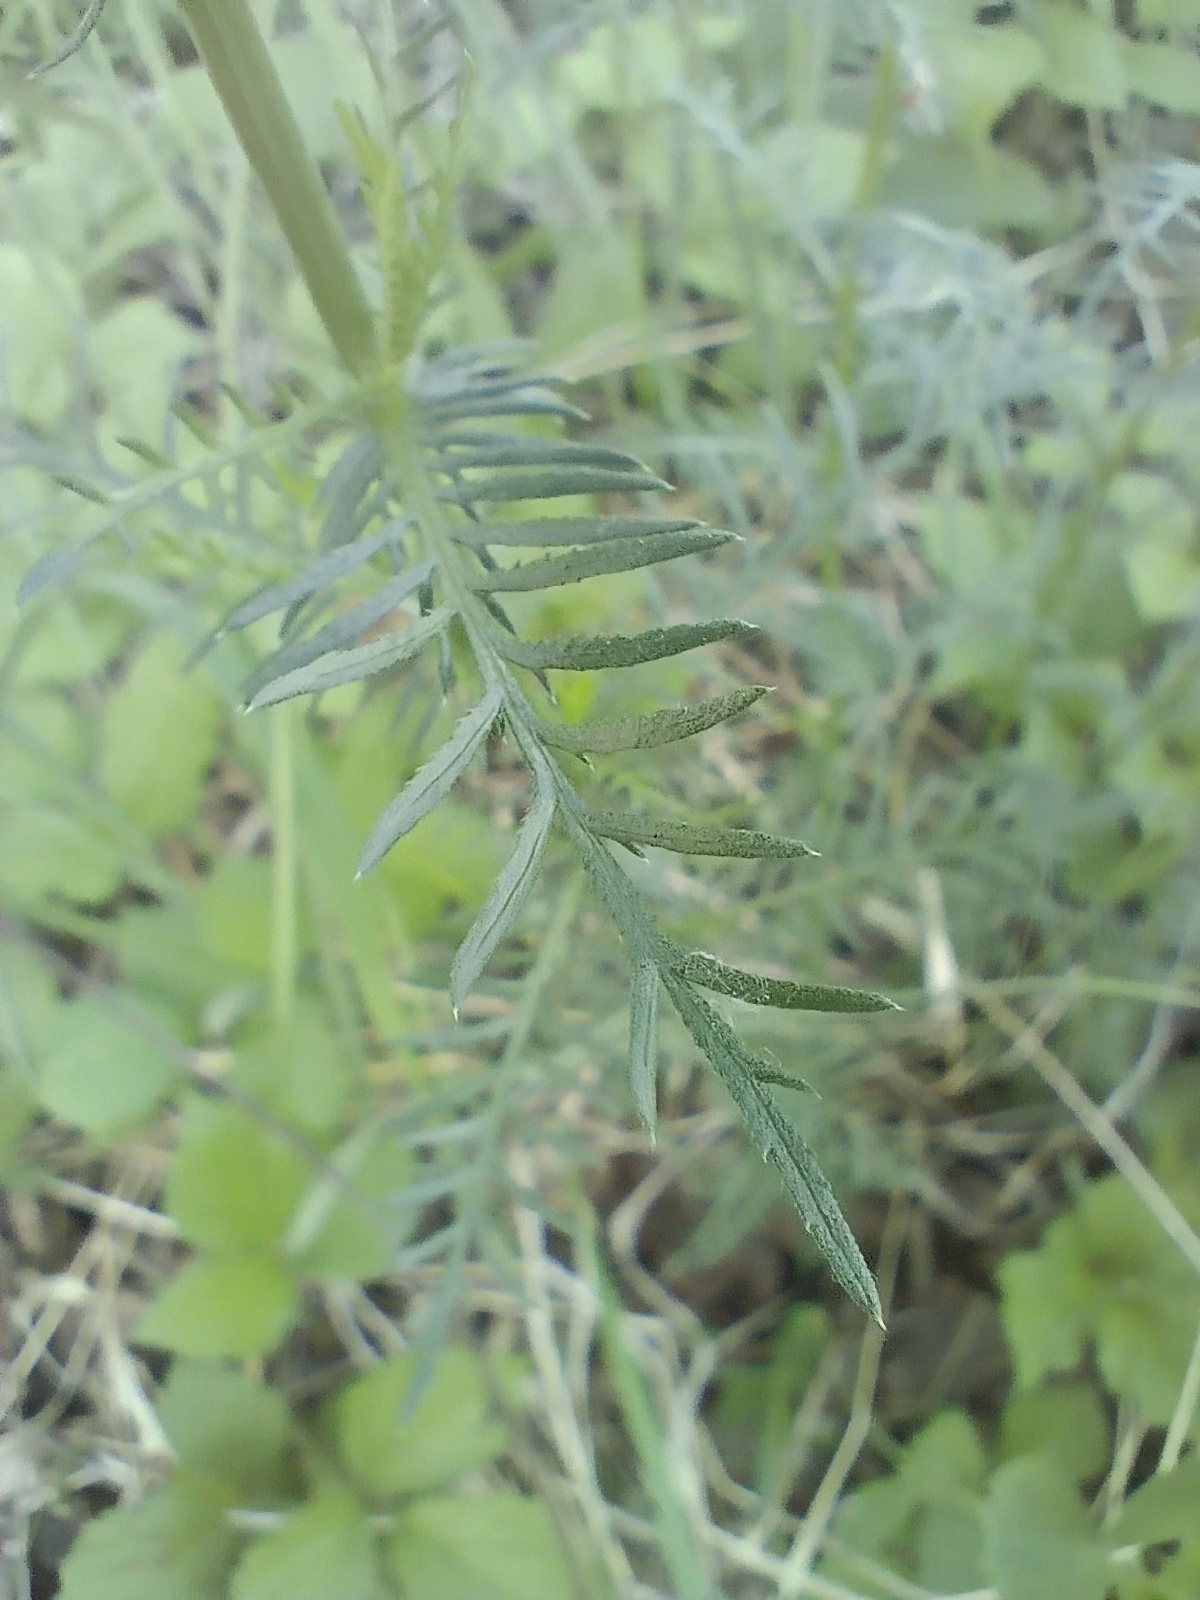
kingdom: Plantae
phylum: Tracheophyta
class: Magnoliopsida
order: Asterales
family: Asteraceae
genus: Achillea
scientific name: Achillea impatiens
